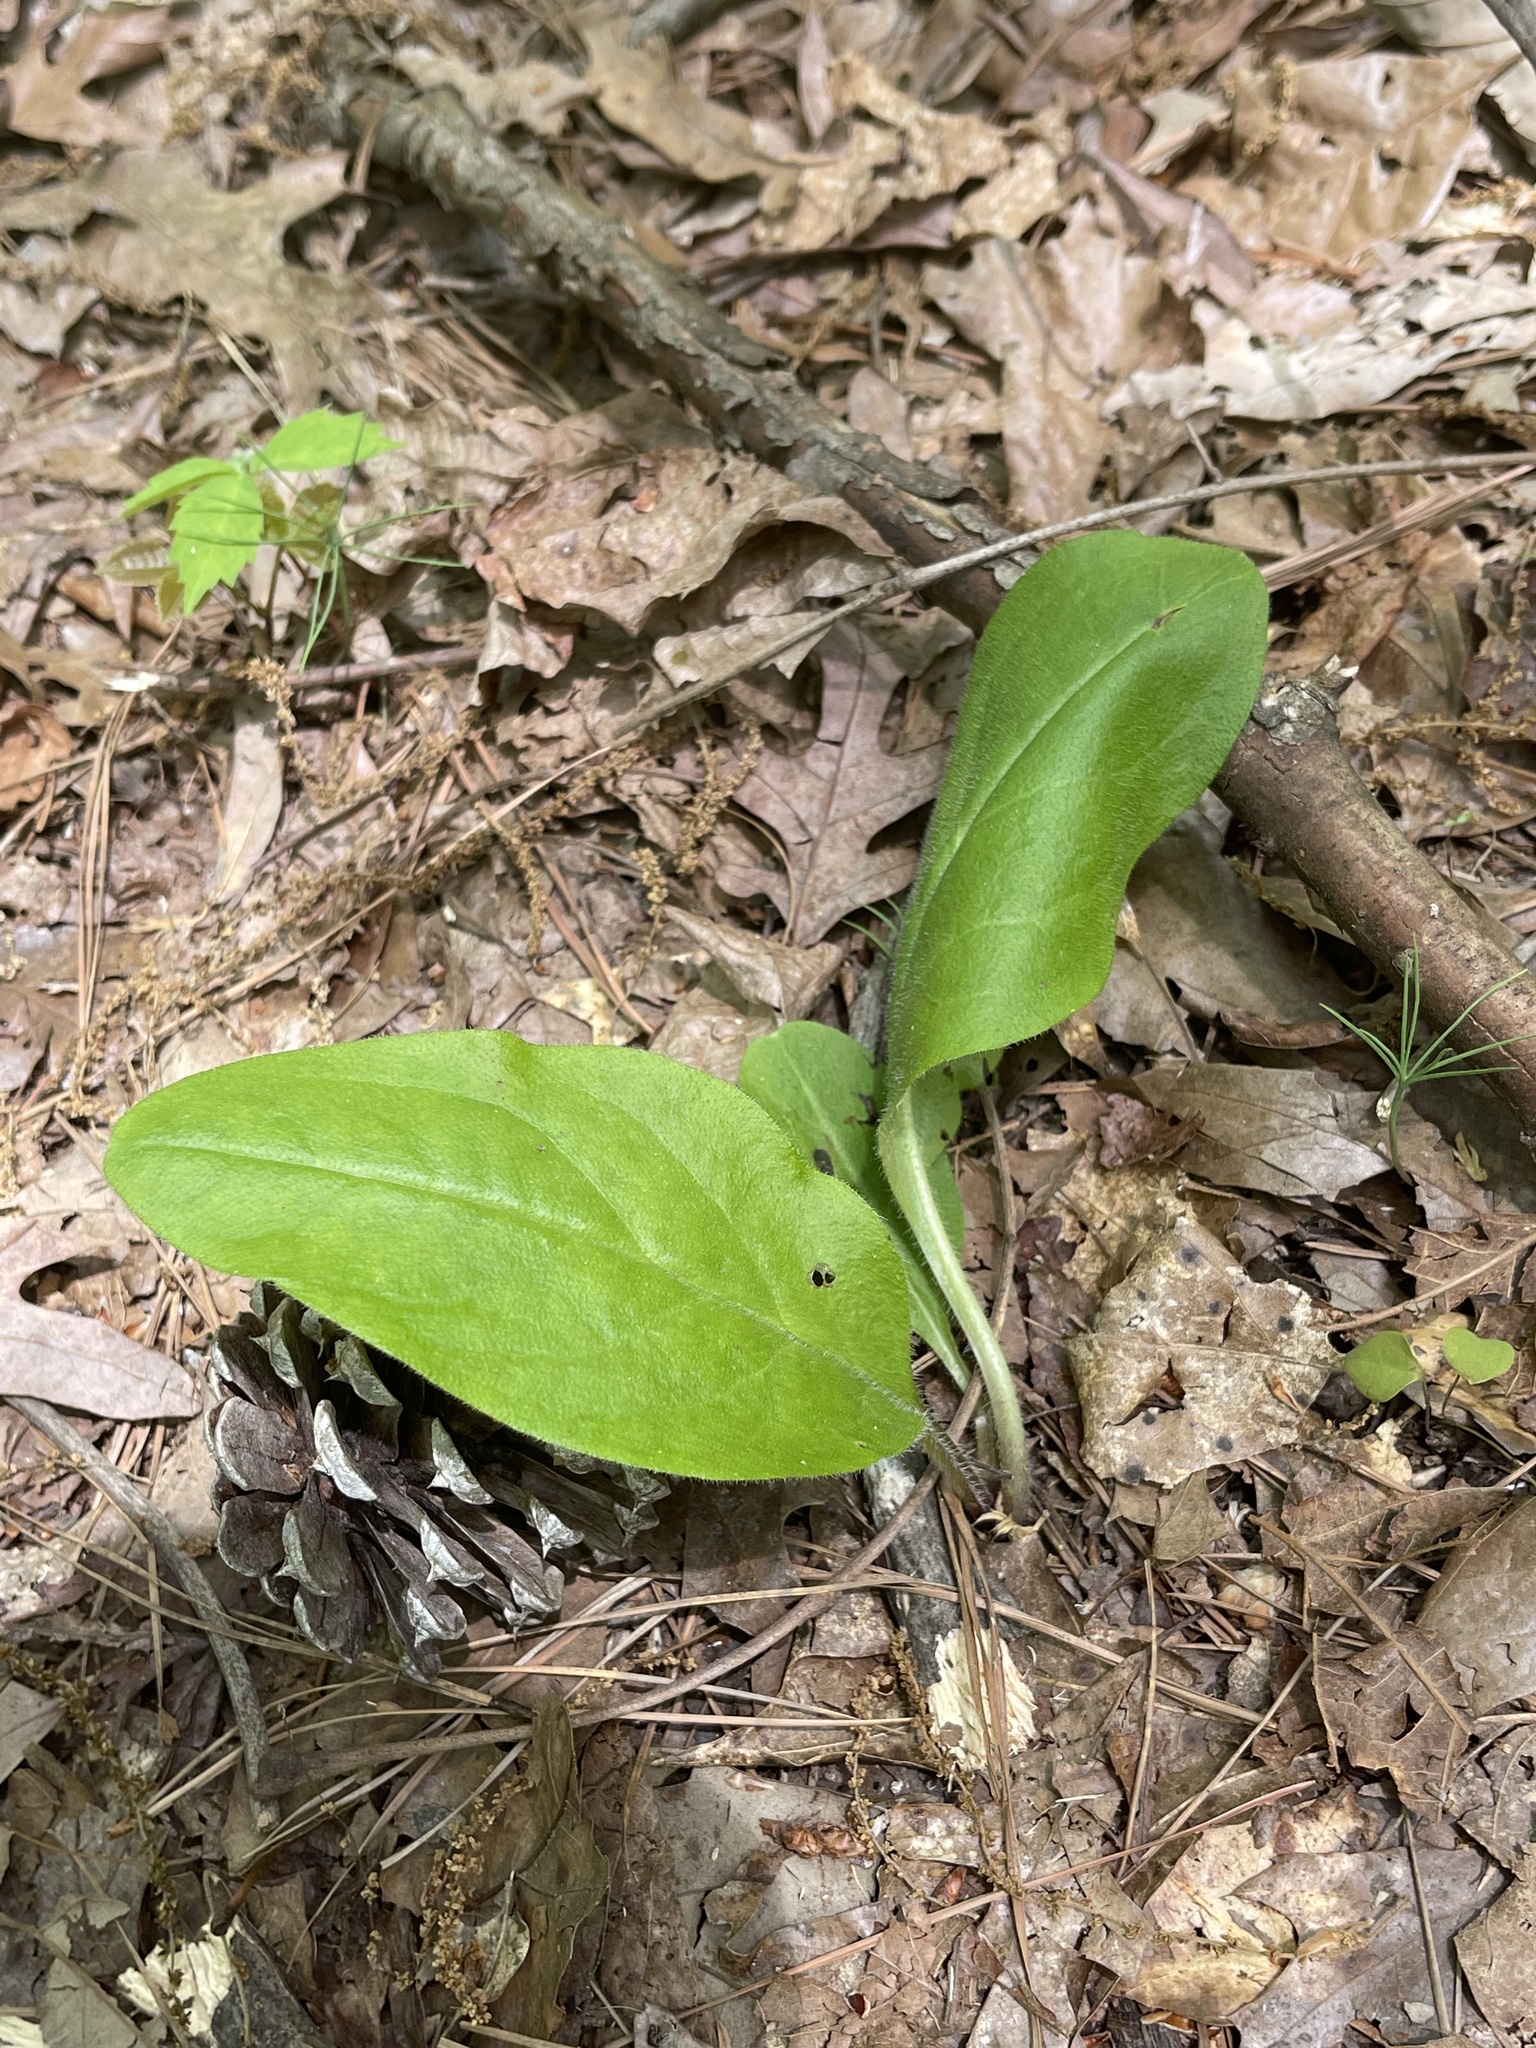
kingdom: Plantae
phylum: Tracheophyta
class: Magnoliopsida
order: Boraginales
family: Boraginaceae
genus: Andersonglossum
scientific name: Andersonglossum virginianum
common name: Wild comfrey
